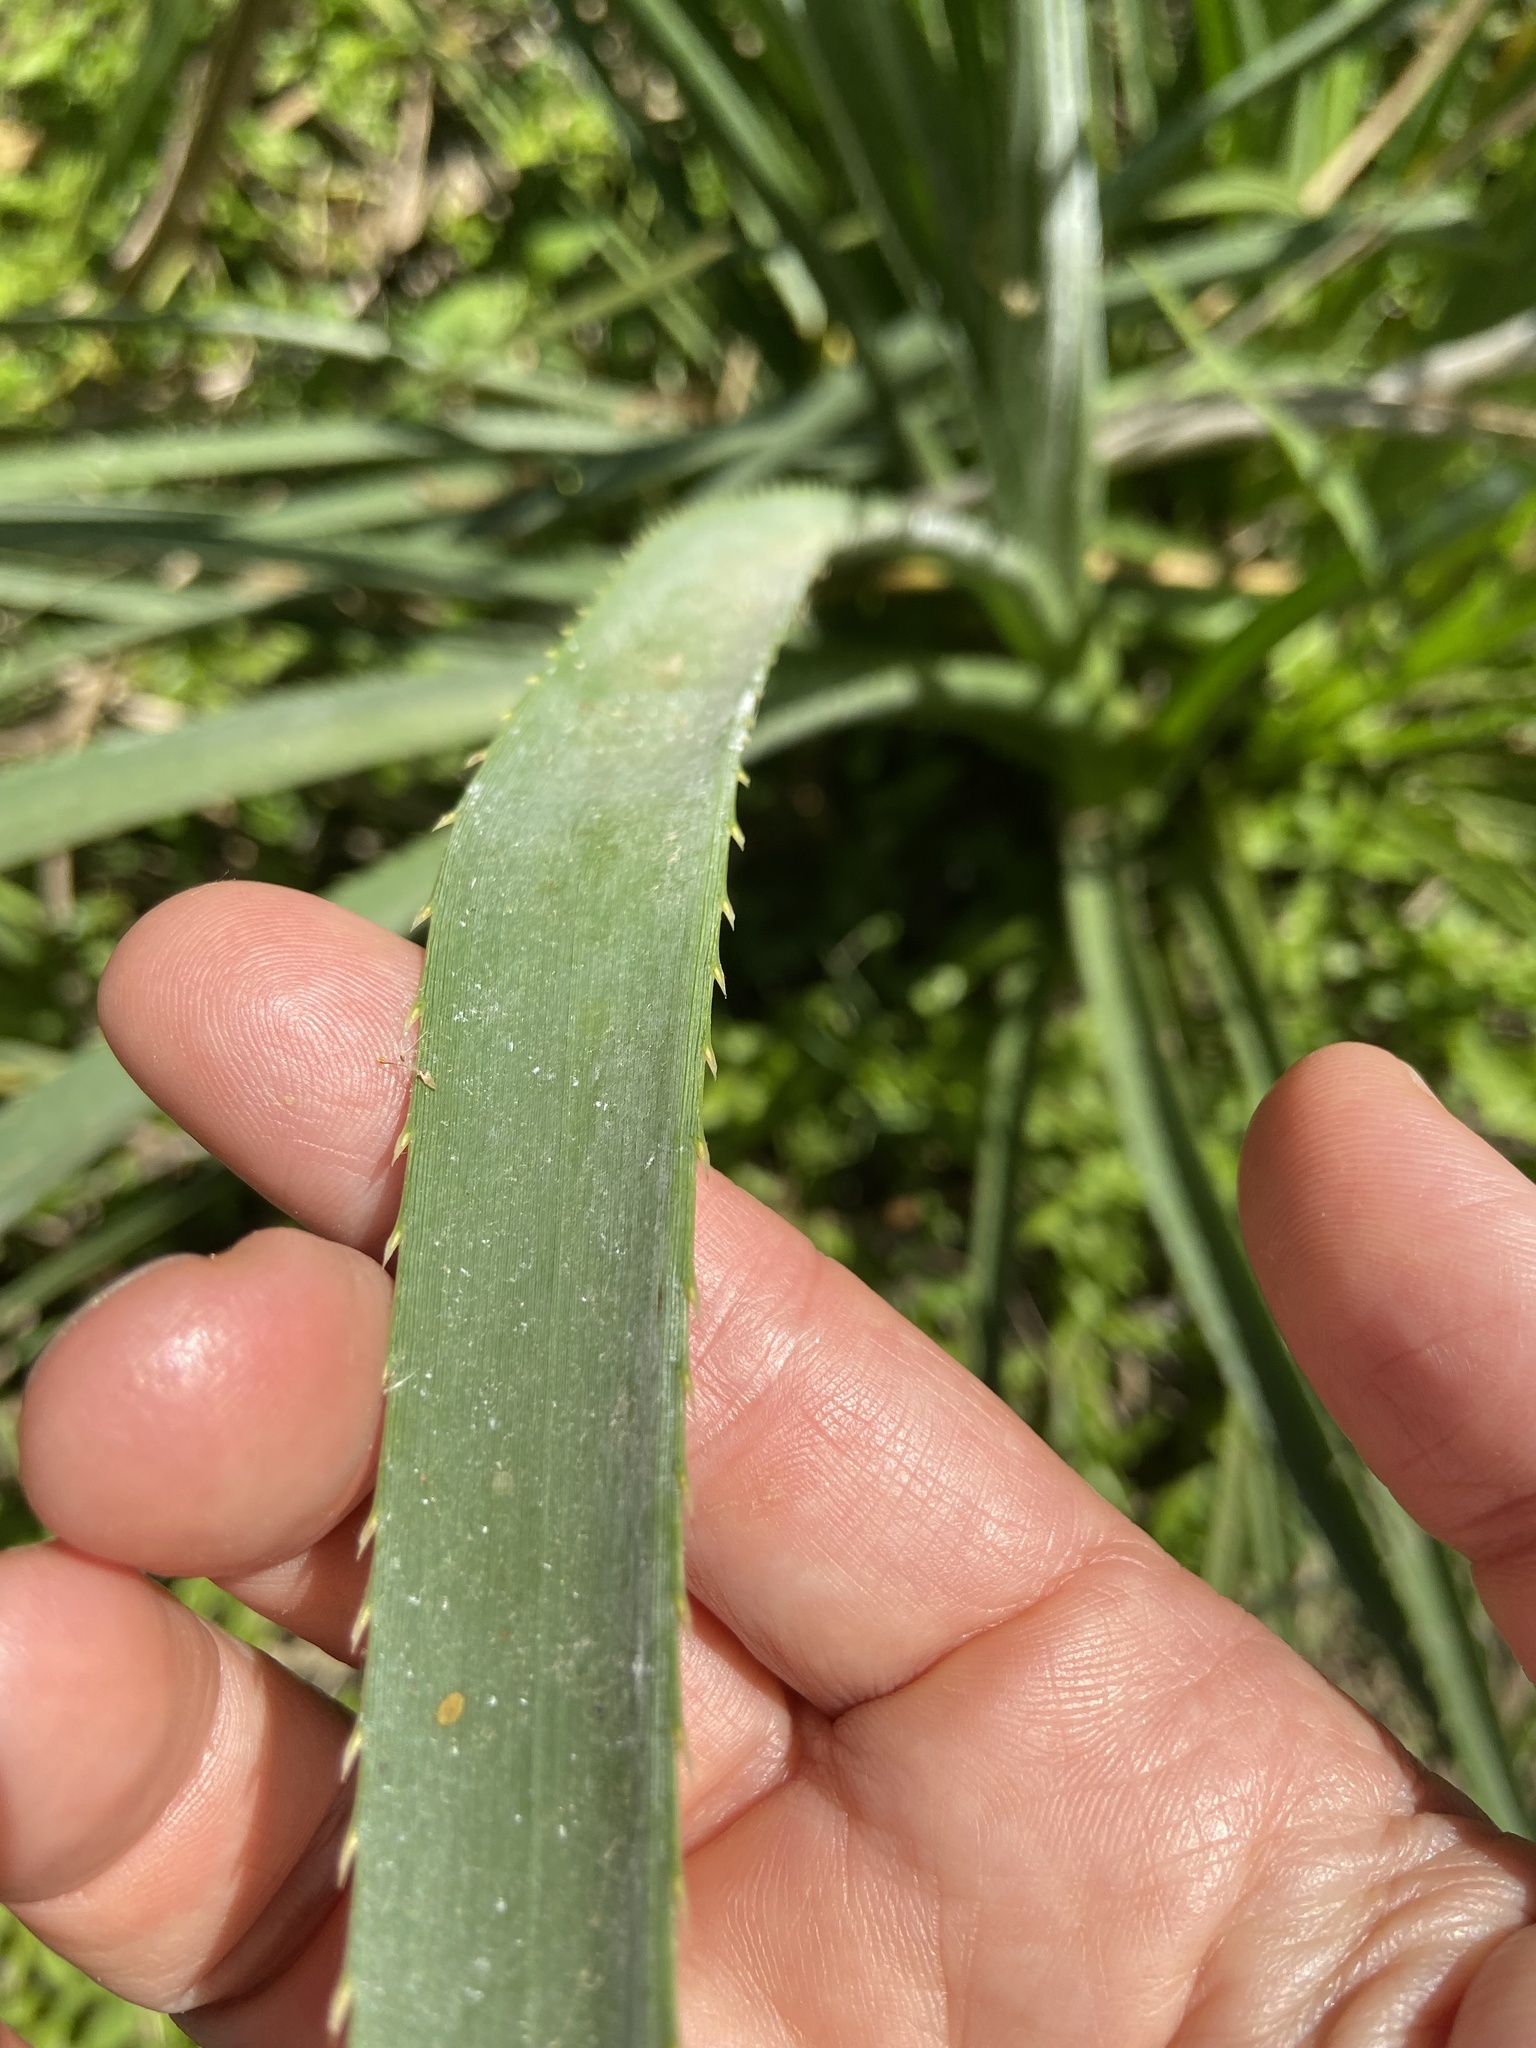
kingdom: Plantae
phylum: Tracheophyta
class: Magnoliopsida
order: Apiales
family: Apiaceae
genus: Eryngium
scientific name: Eryngium pandanifolium
